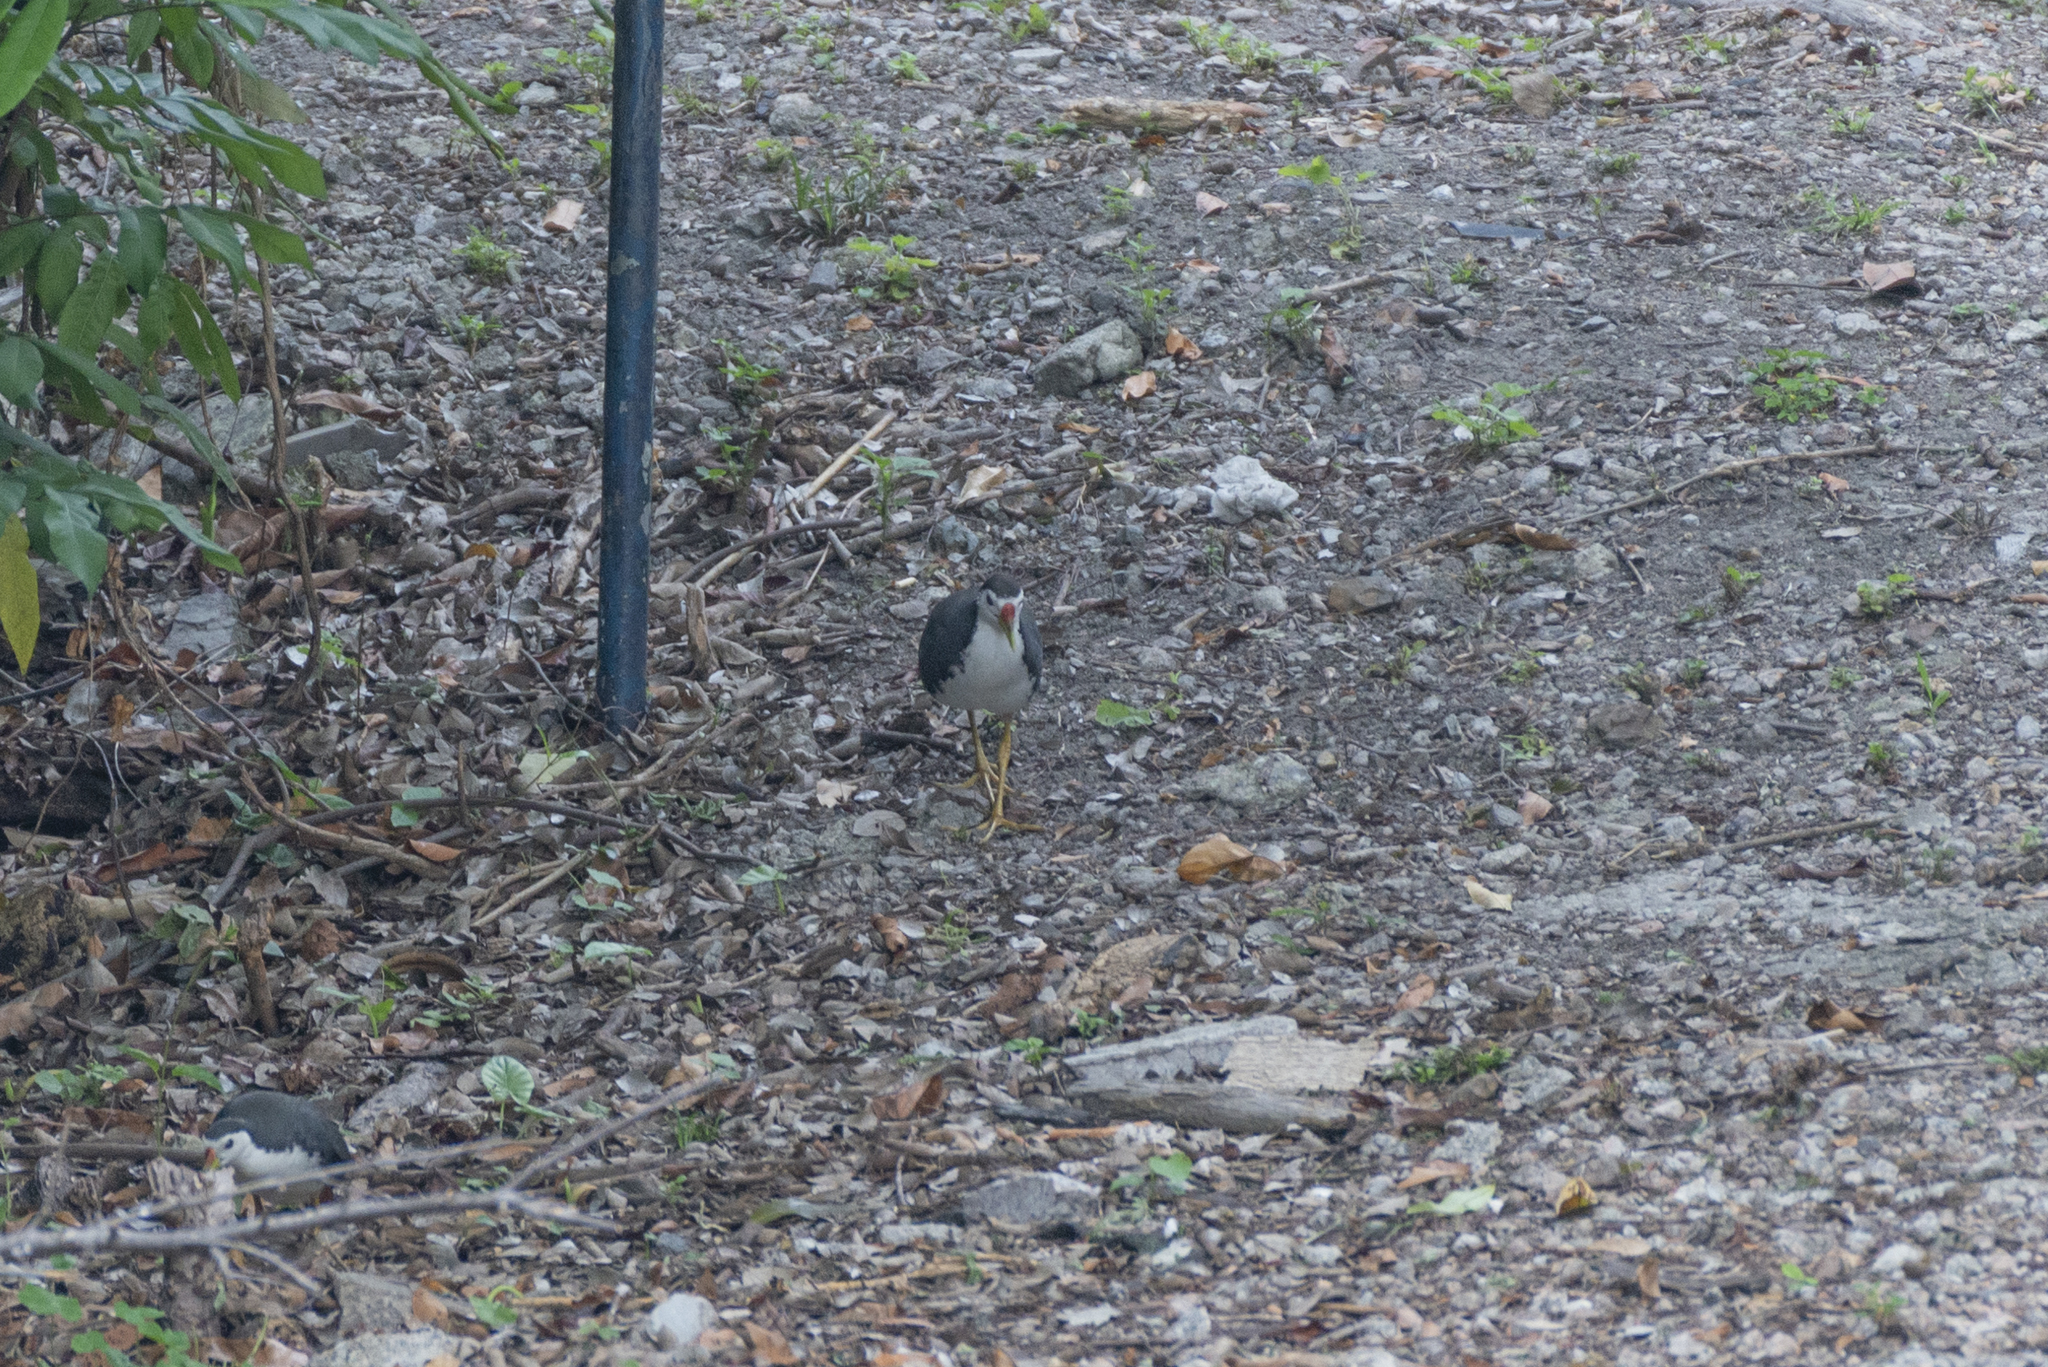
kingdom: Animalia
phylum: Chordata
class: Aves
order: Gruiformes
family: Rallidae
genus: Amaurornis
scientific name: Amaurornis phoenicurus
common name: White-breasted waterhen
